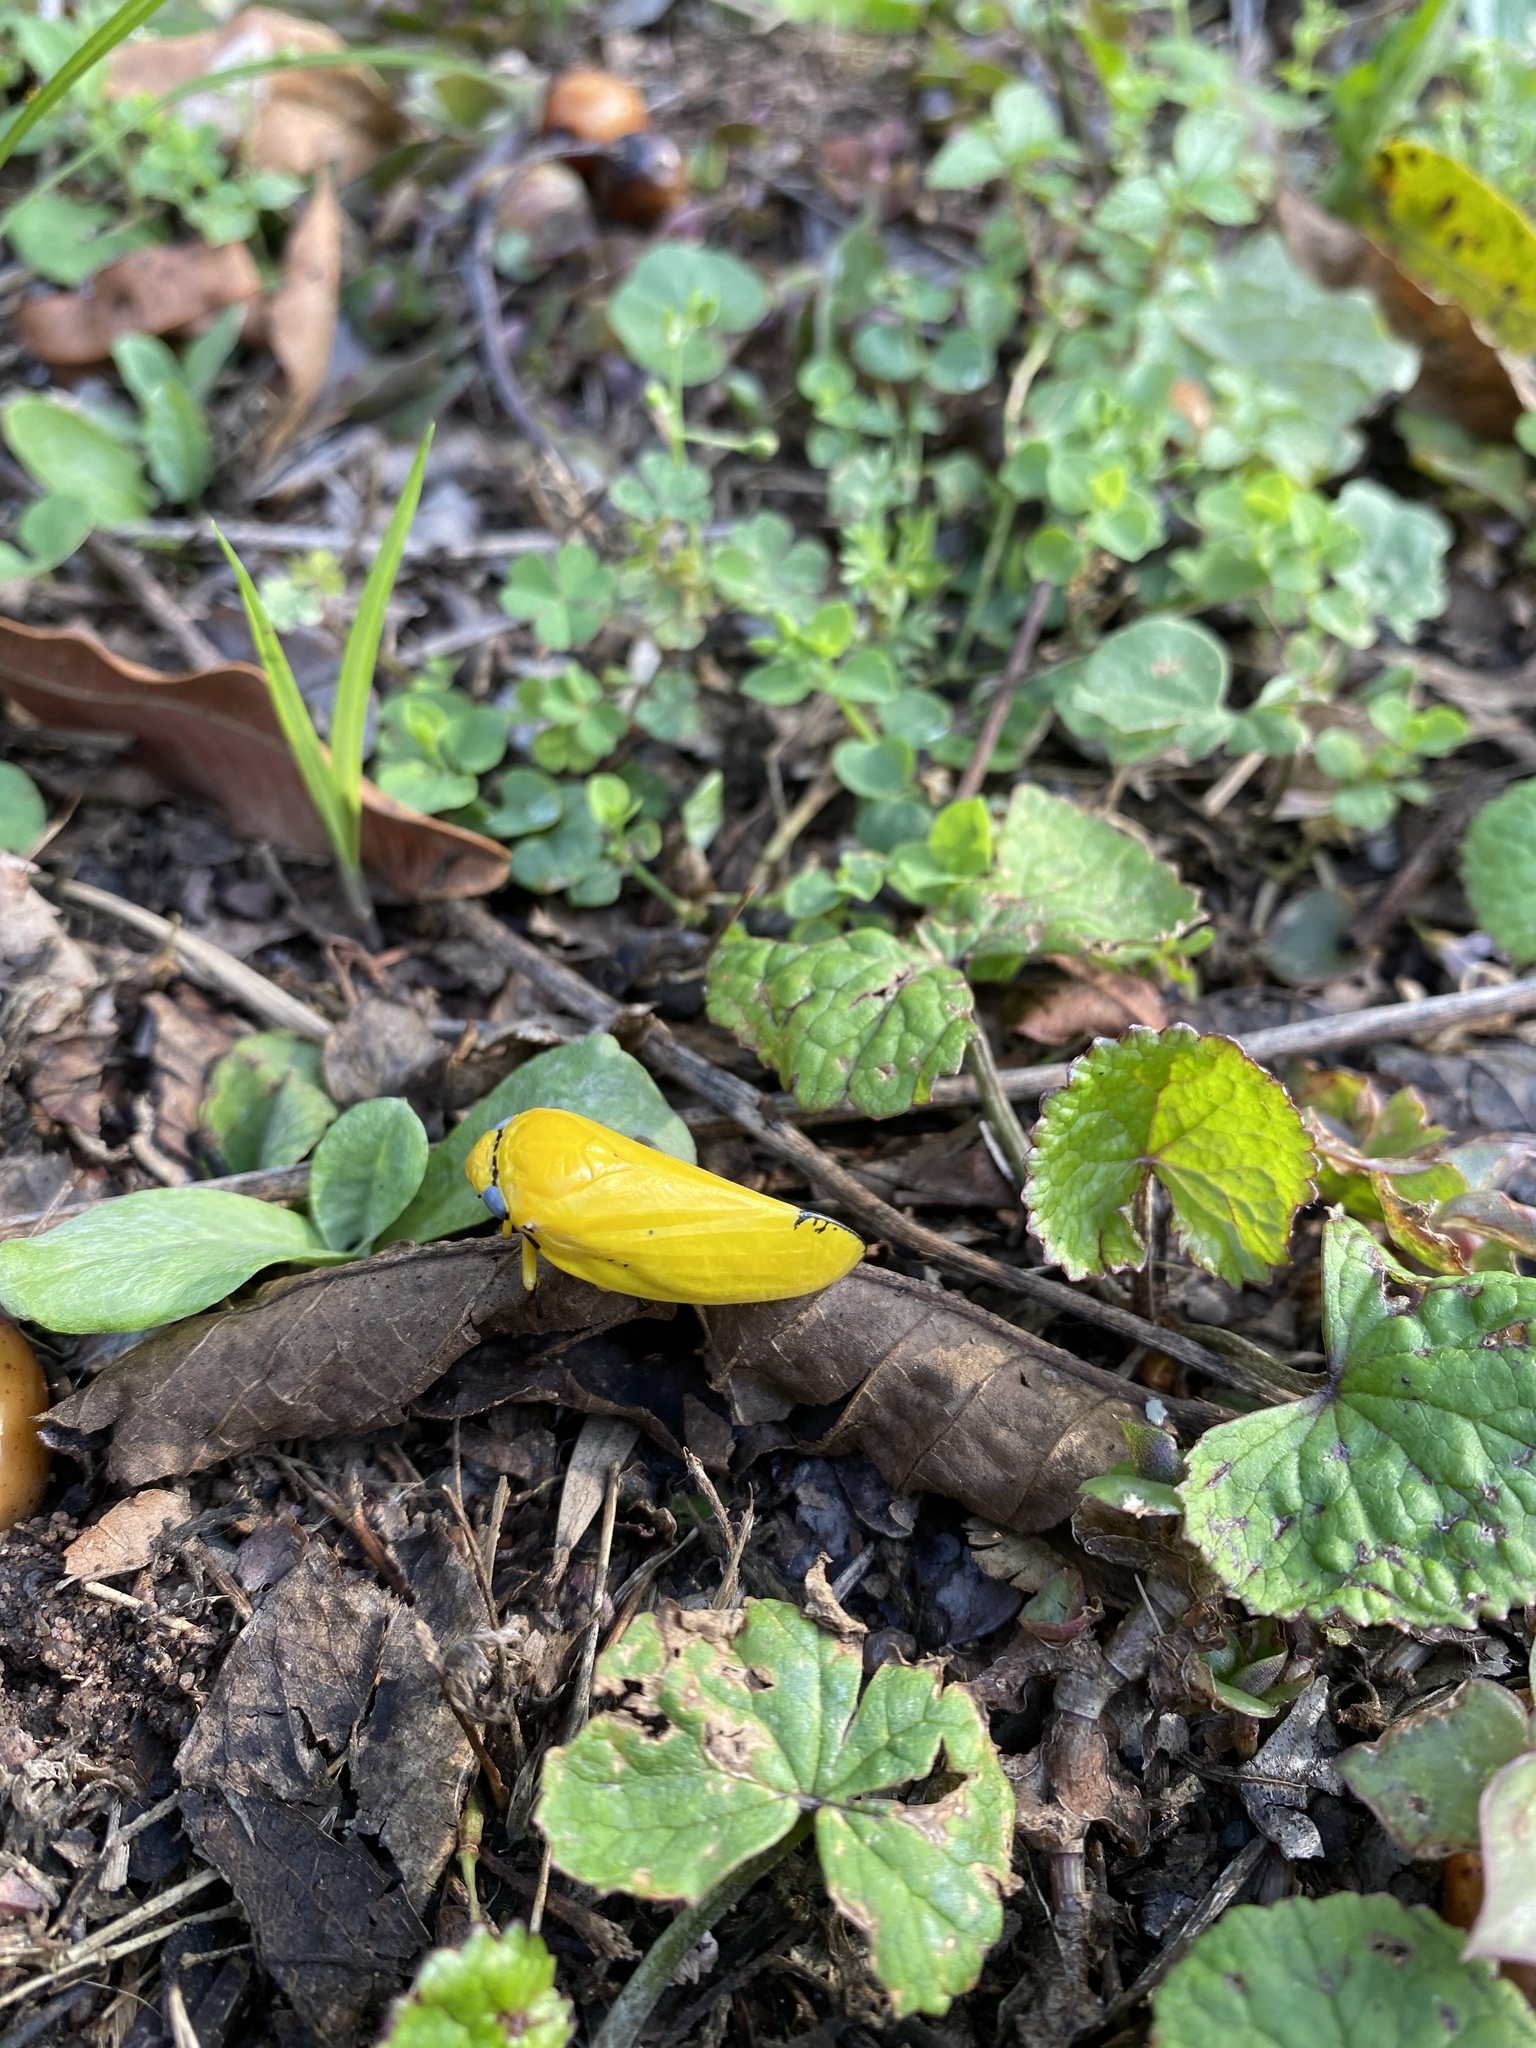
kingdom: Animalia
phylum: Arthropoda
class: Insecta
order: Hemiptera
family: Aphrophoridae
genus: Ptyelus
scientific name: Ptyelus flavescens
